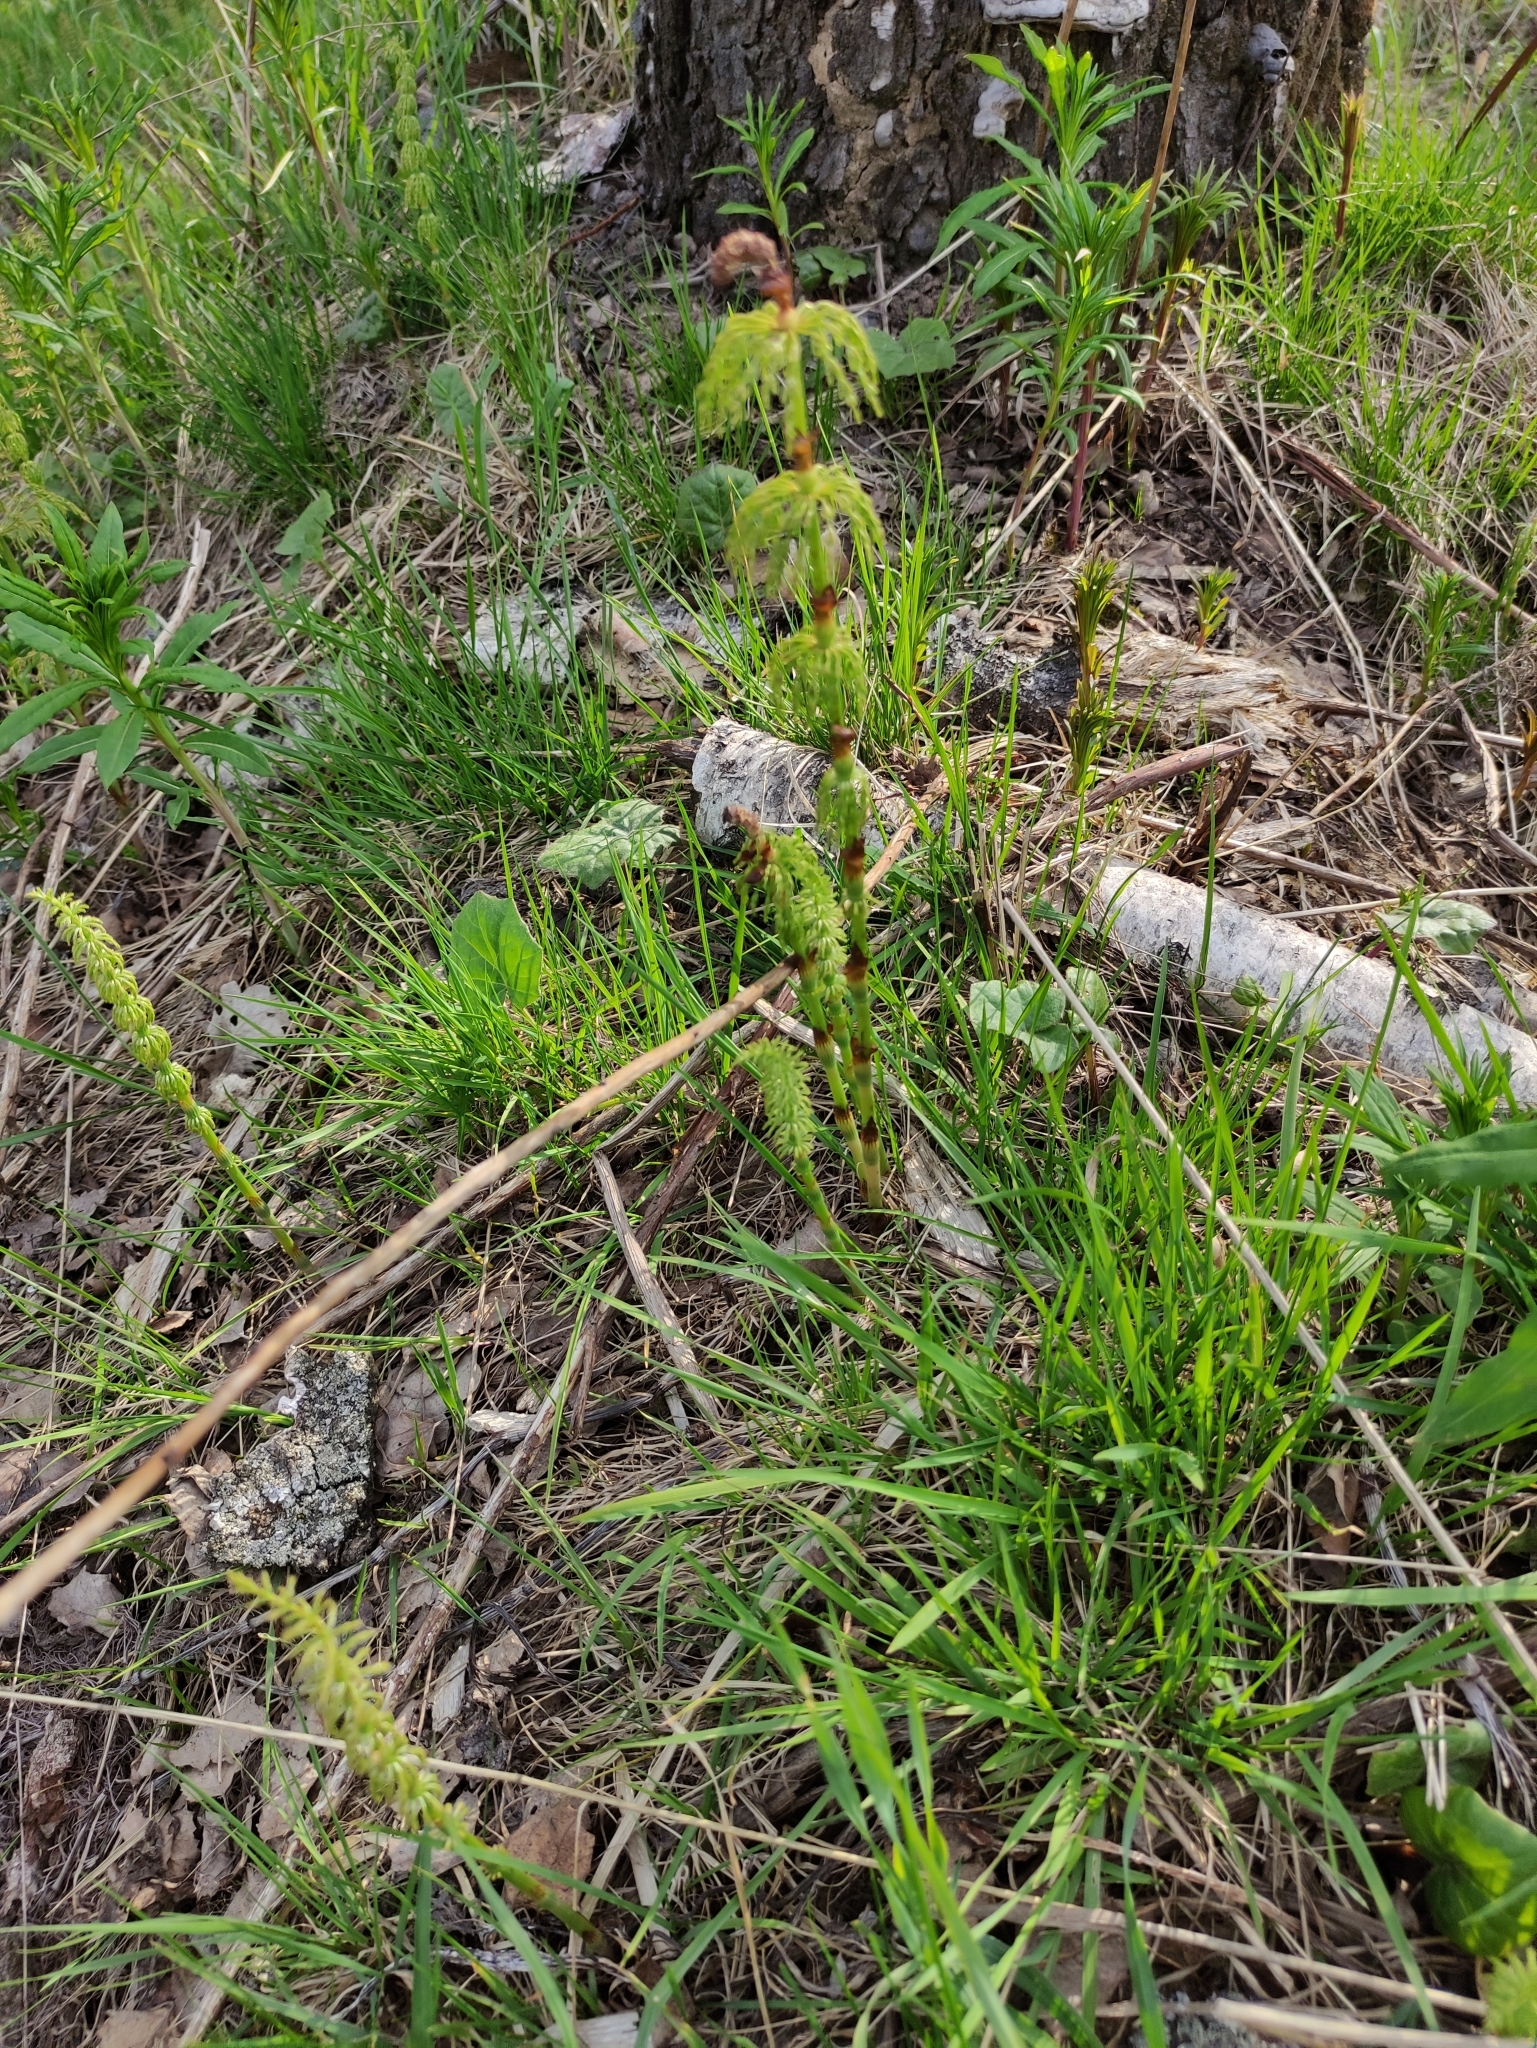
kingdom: Plantae
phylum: Tracheophyta
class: Polypodiopsida
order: Equisetales
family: Equisetaceae
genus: Equisetum
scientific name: Equisetum sylvaticum
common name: Wood horsetail
